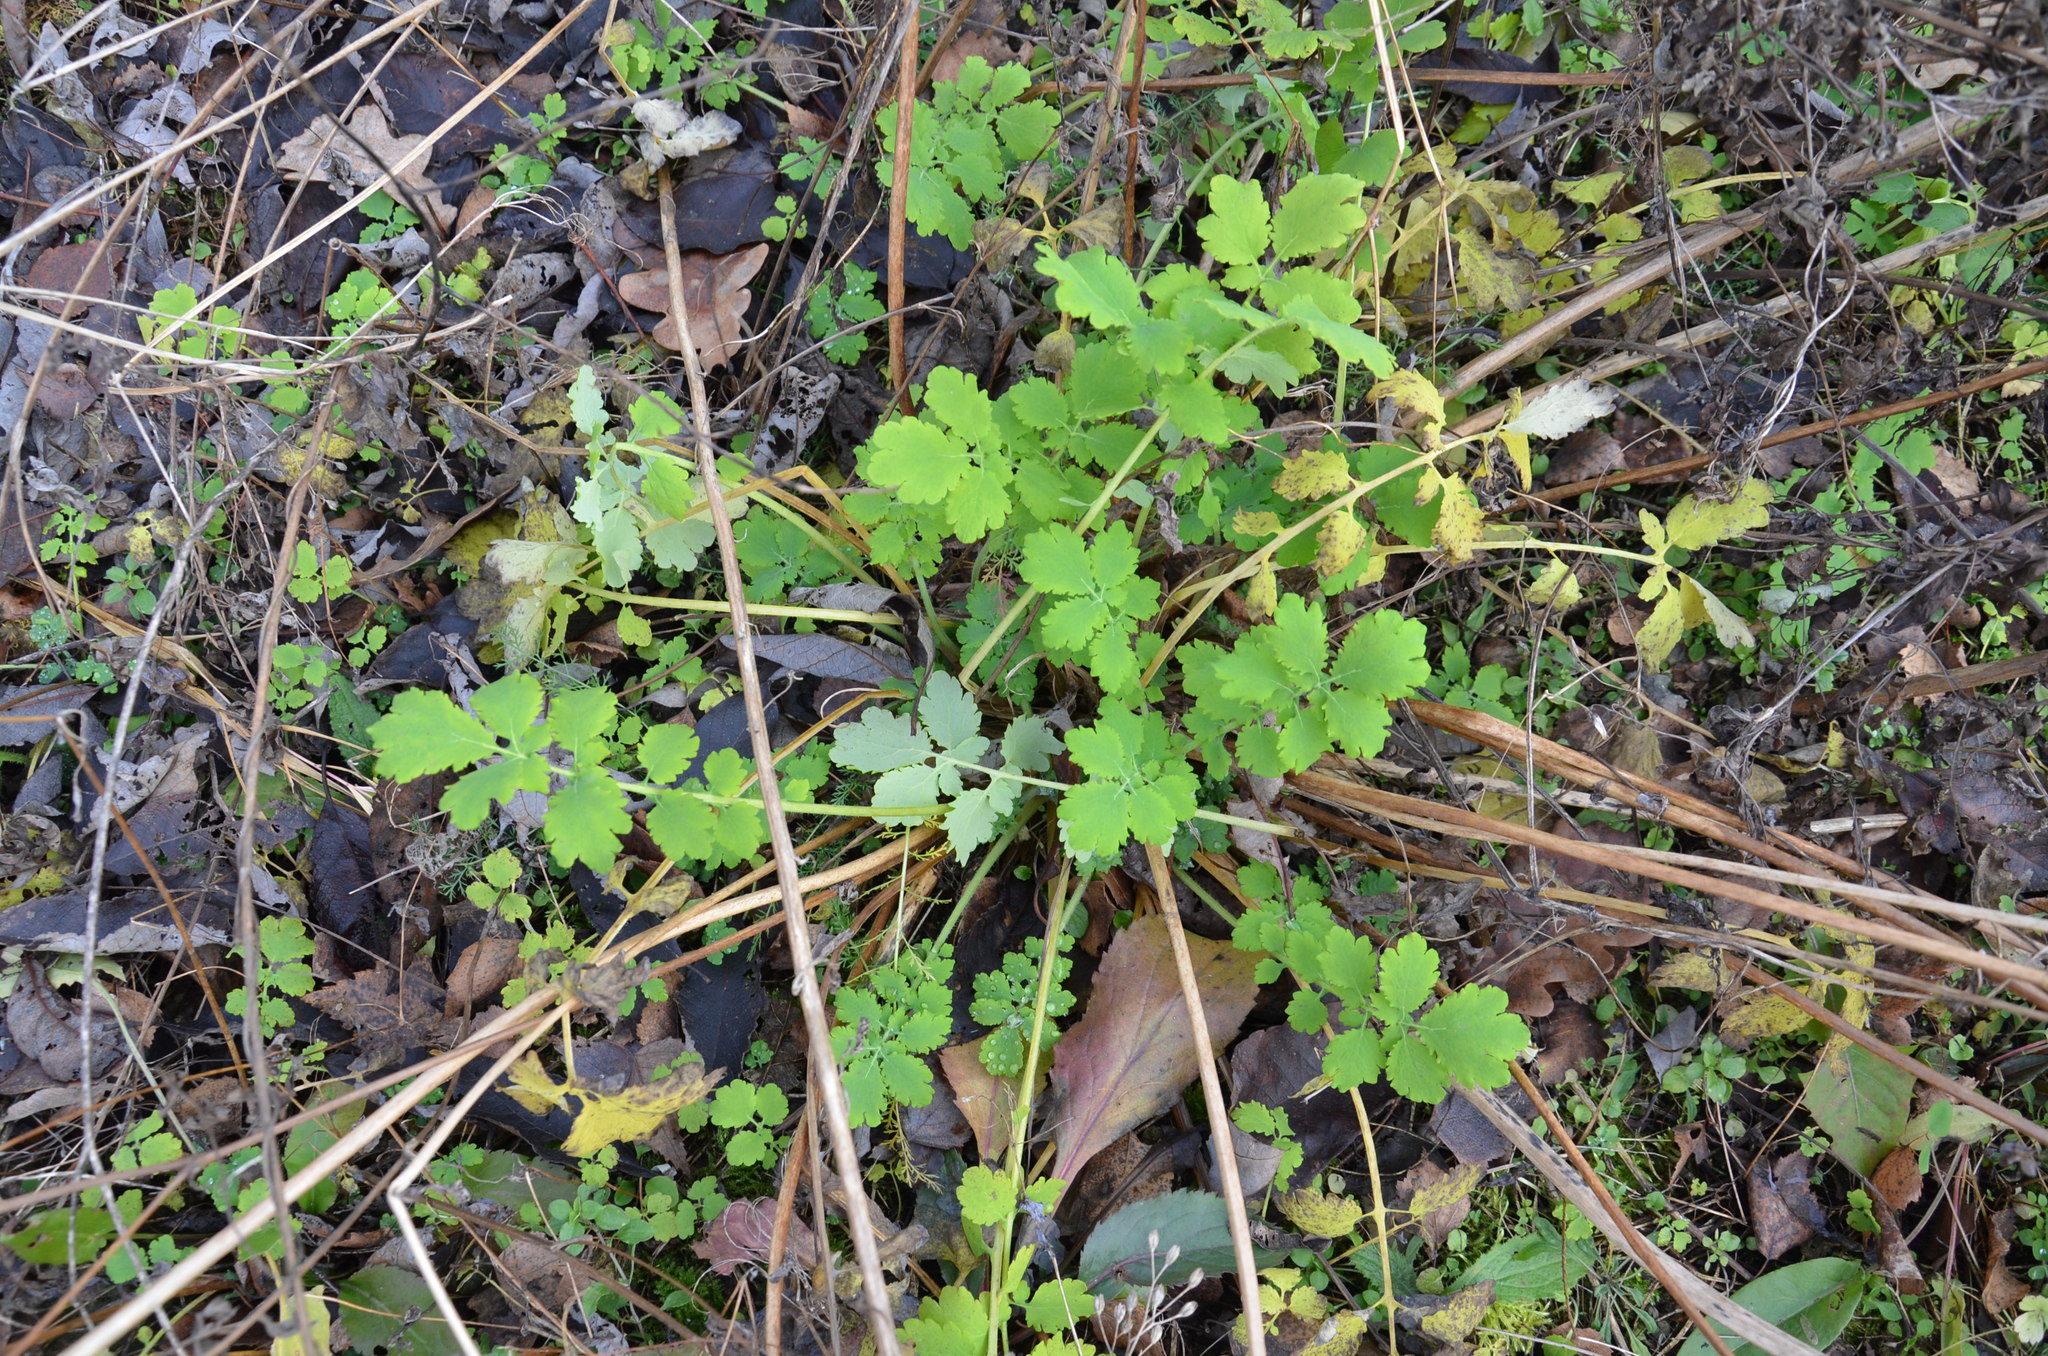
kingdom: Plantae
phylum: Tracheophyta
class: Magnoliopsida
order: Ranunculales
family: Papaveraceae
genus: Chelidonium
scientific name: Chelidonium majus
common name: Greater celandine
